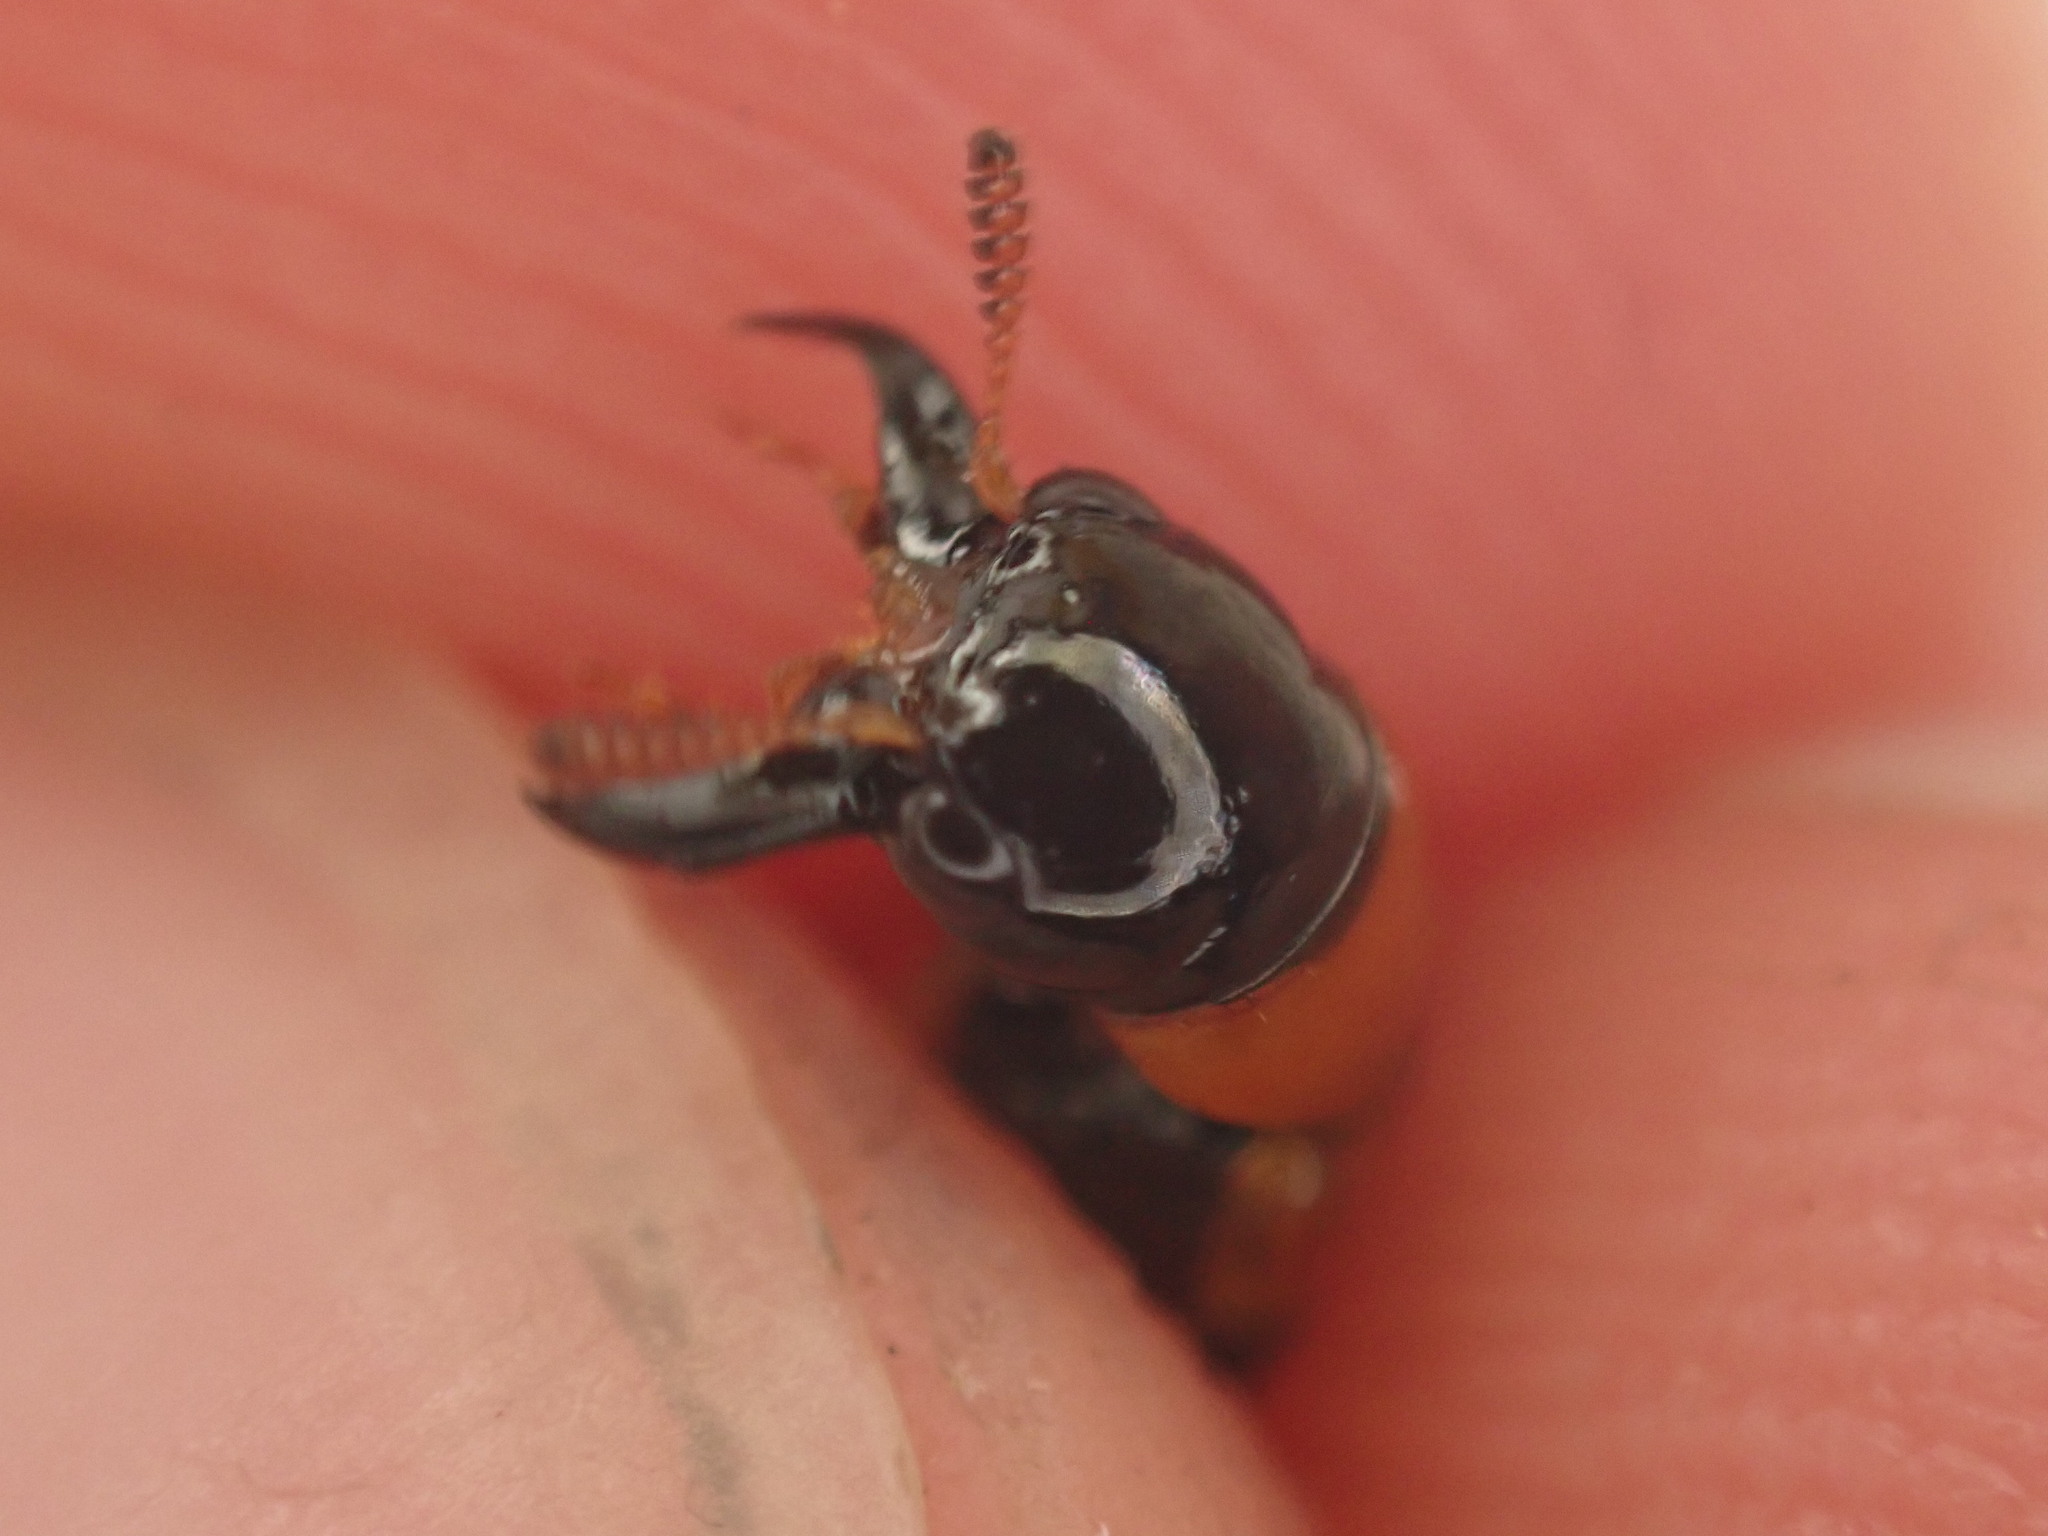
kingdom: Animalia
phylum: Arthropoda
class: Insecta
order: Coleoptera
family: Staphylinidae
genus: Oxyporus
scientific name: Oxyporus rufus
